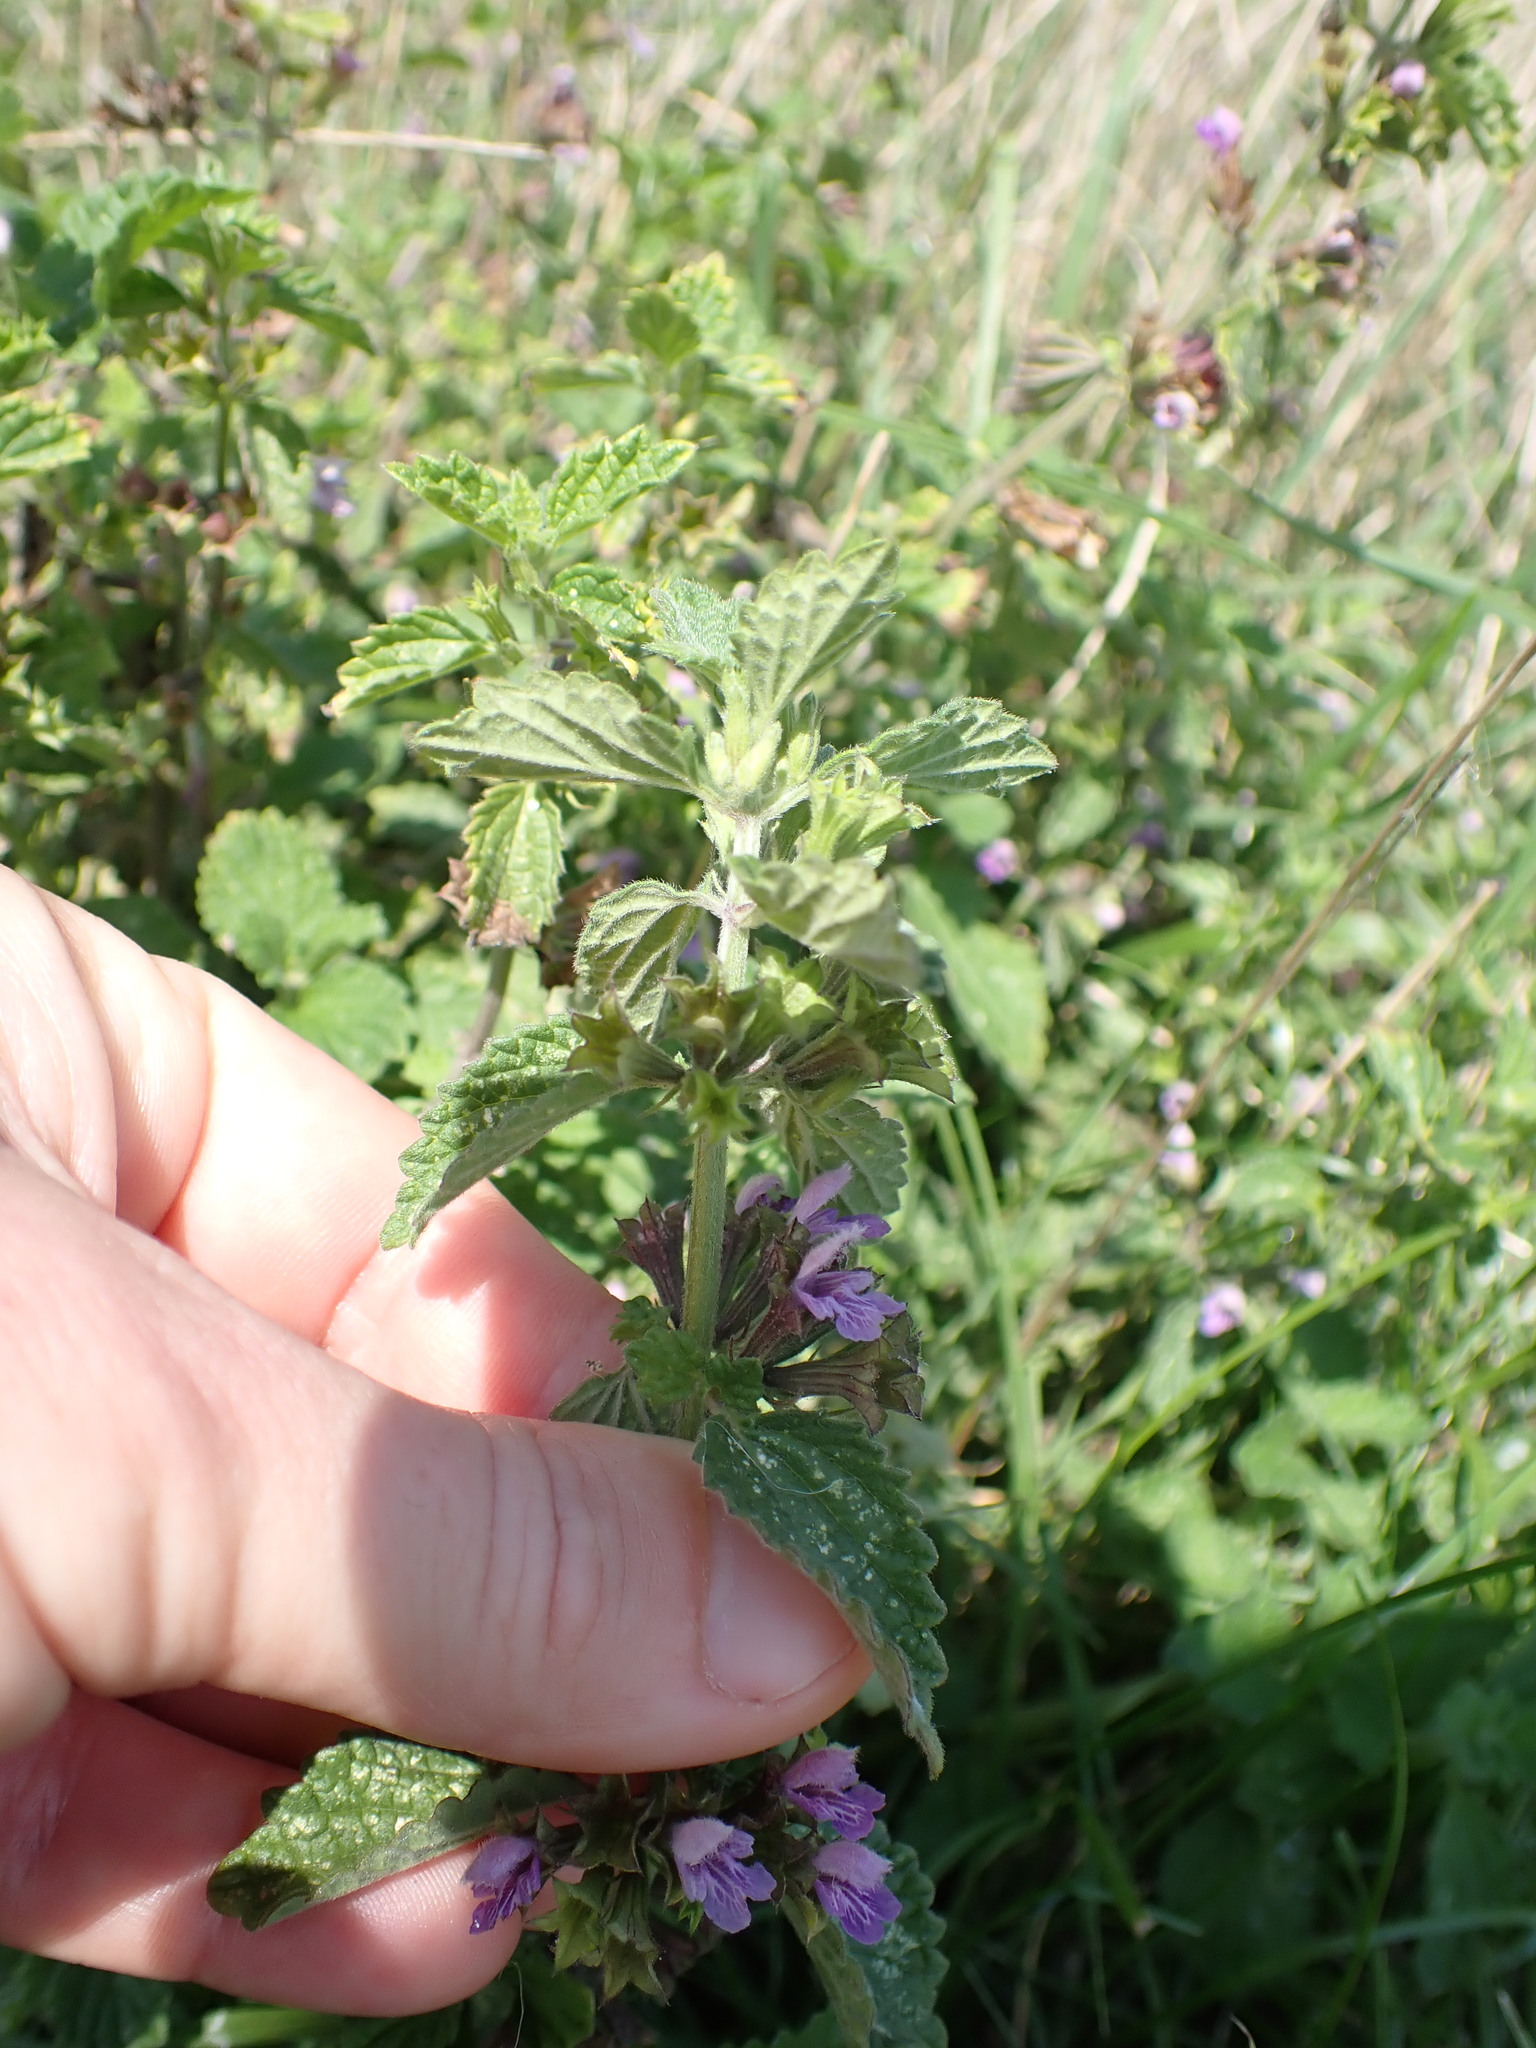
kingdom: Plantae
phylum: Tracheophyta
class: Magnoliopsida
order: Lamiales
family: Lamiaceae
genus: Ballota
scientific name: Ballota nigra
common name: Black horehound
